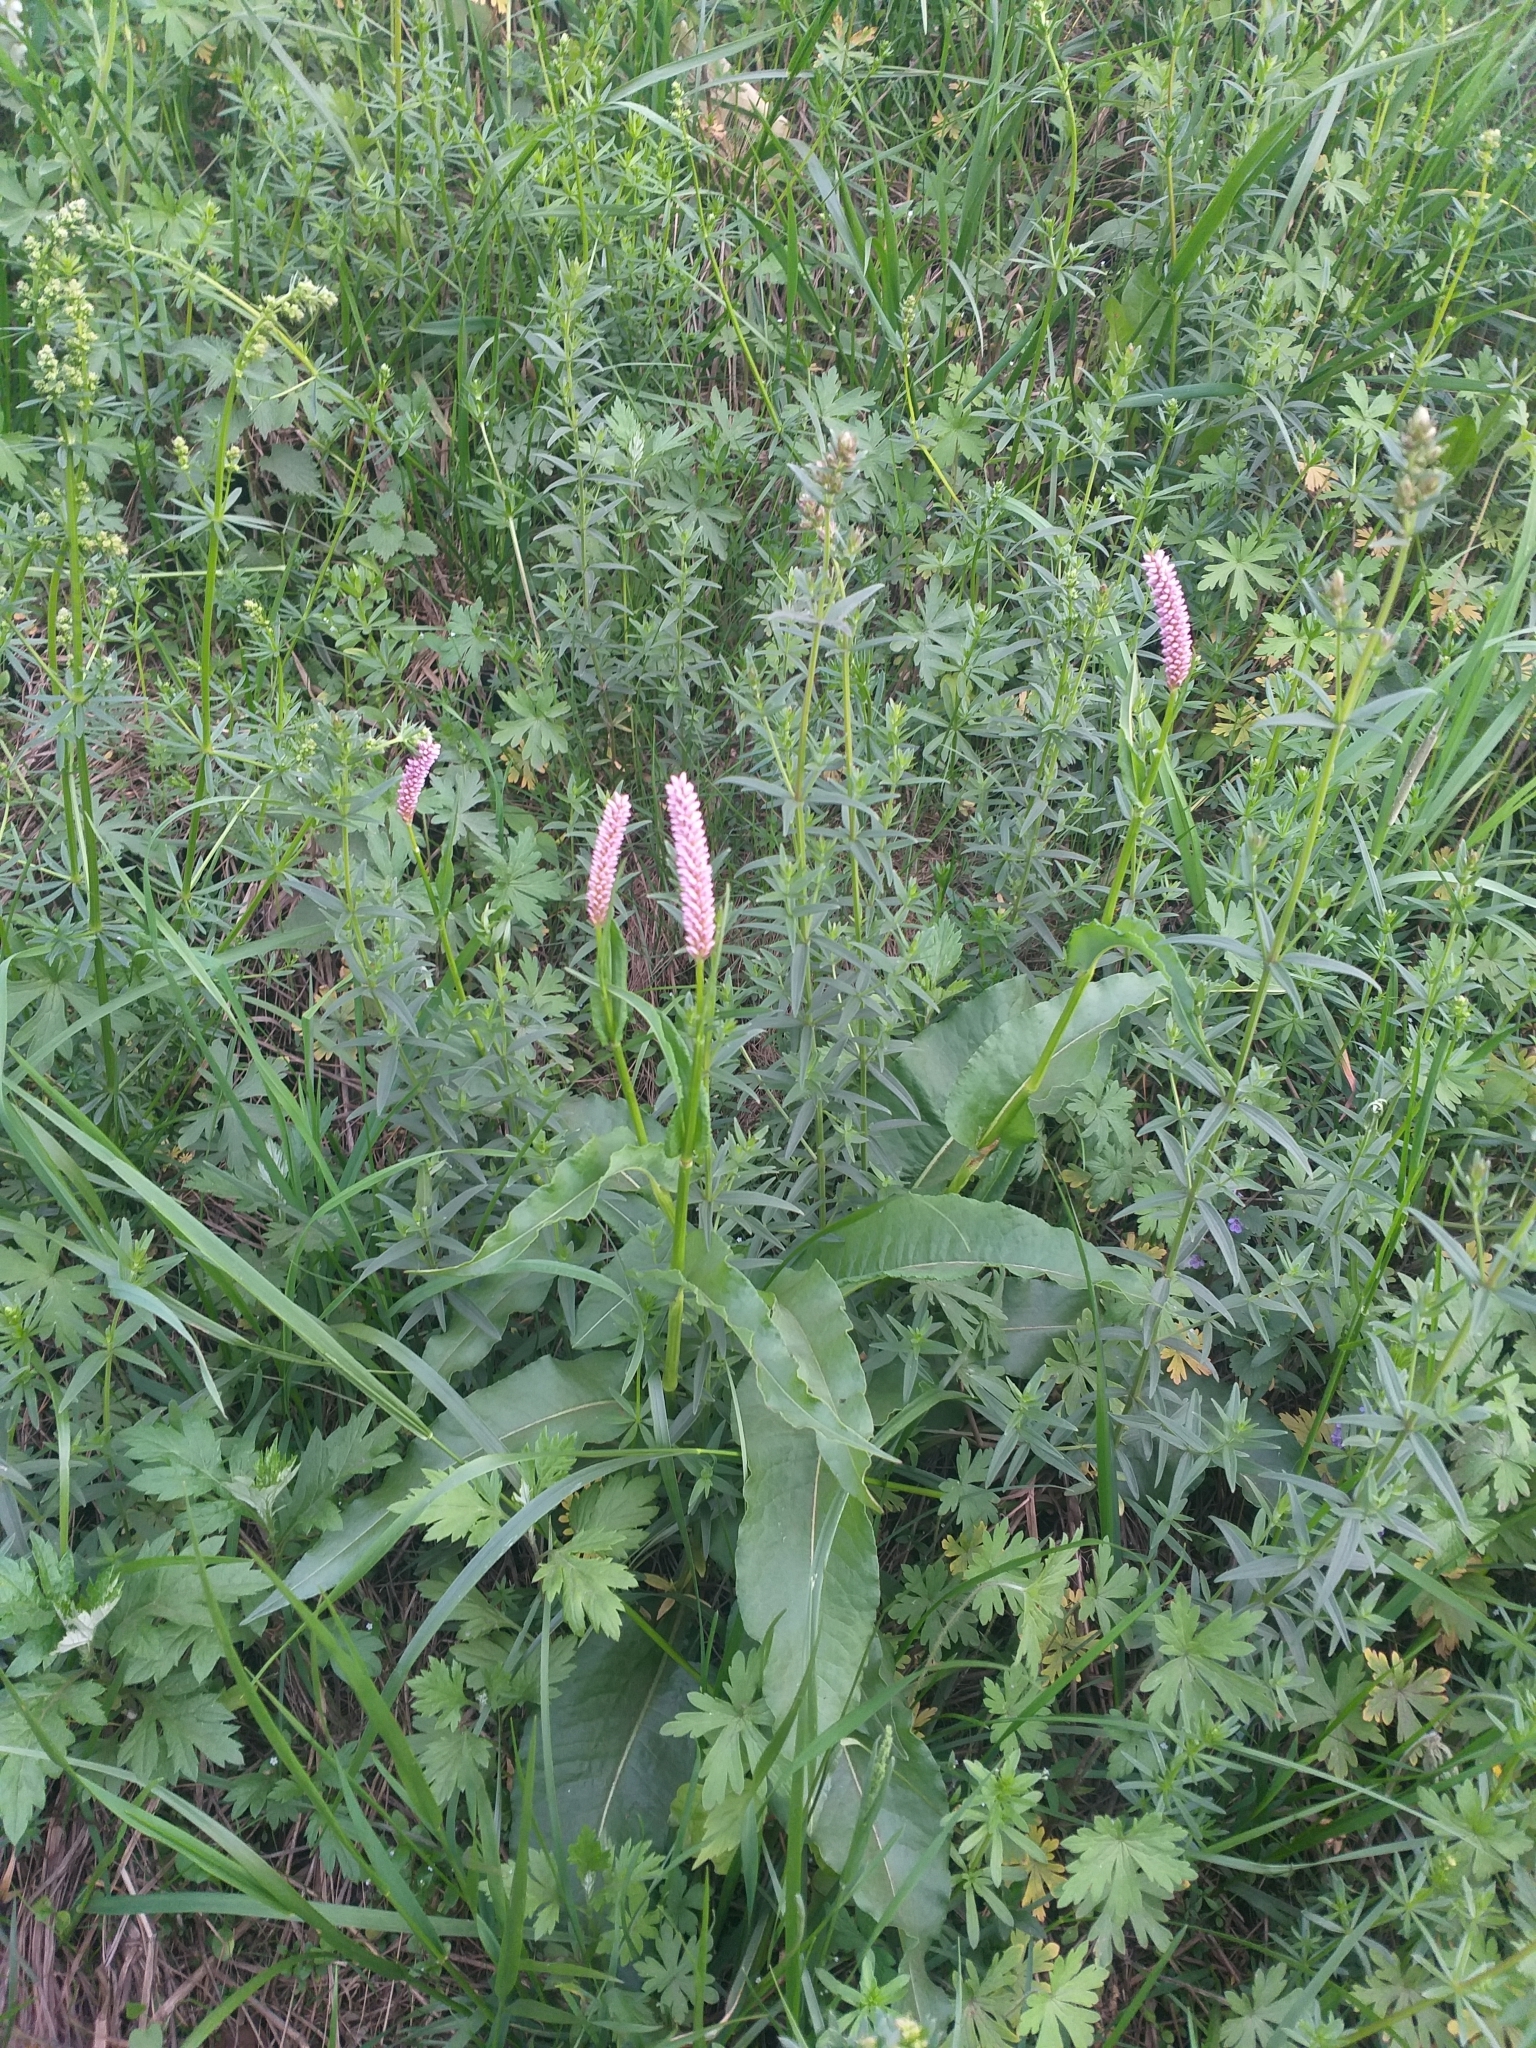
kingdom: Plantae
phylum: Tracheophyta
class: Magnoliopsida
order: Caryophyllales
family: Polygonaceae
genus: Bistorta
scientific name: Bistorta officinalis
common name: Common bistort
